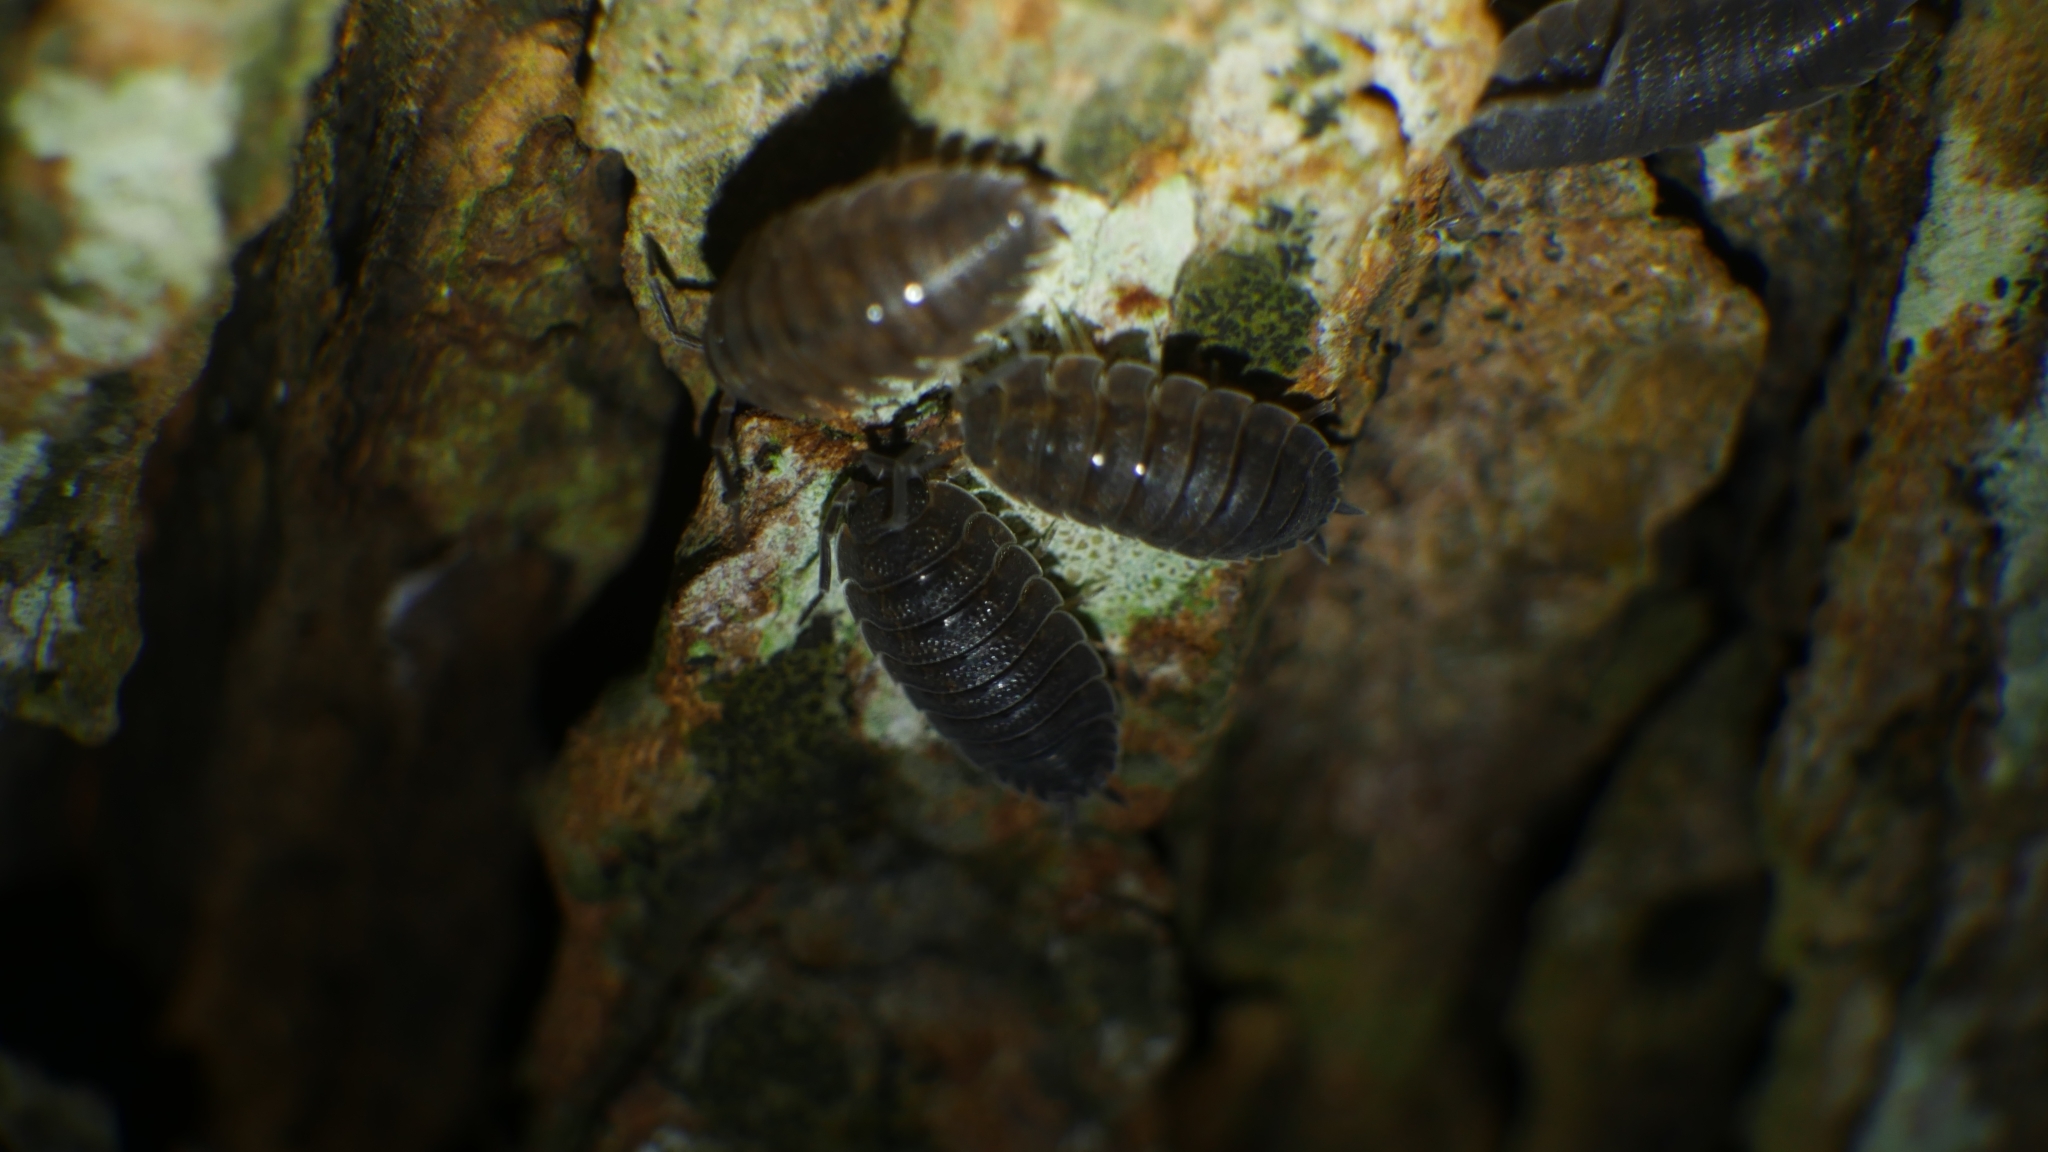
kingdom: Animalia
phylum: Arthropoda
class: Malacostraca
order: Isopoda
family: Porcellionidae
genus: Porcellio
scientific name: Porcellio scaber
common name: Common rough woodlouse
